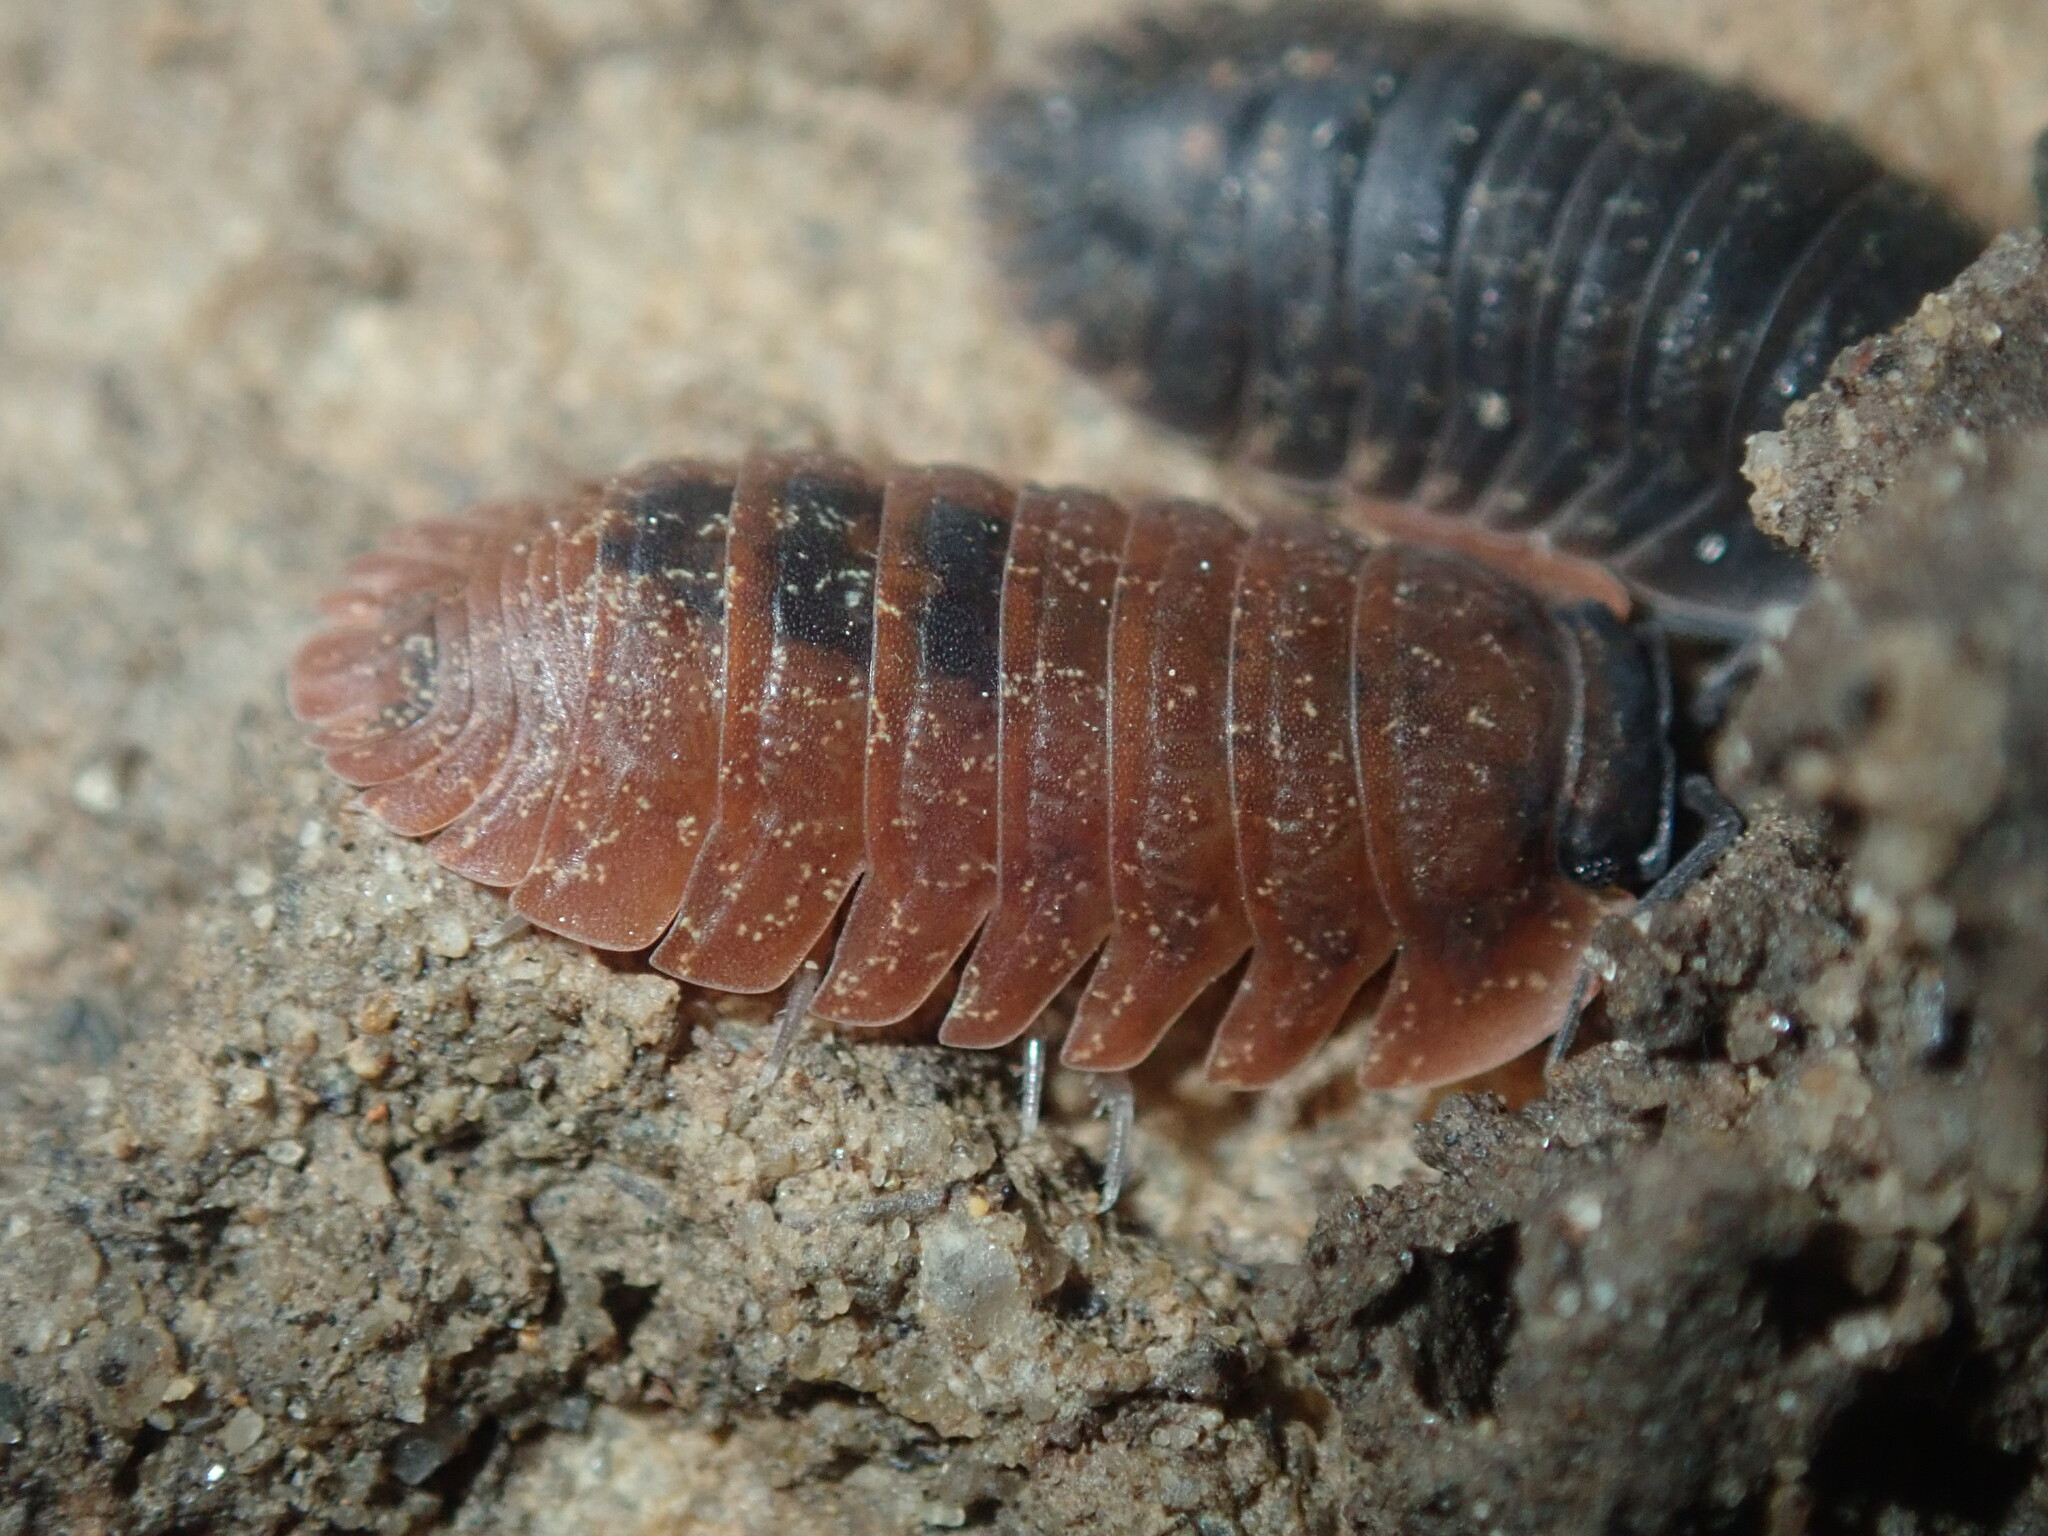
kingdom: Animalia
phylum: Arthropoda
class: Malacostraca
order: Isopoda
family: Armadillidae
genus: Merulana
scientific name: Merulana helmsiana
